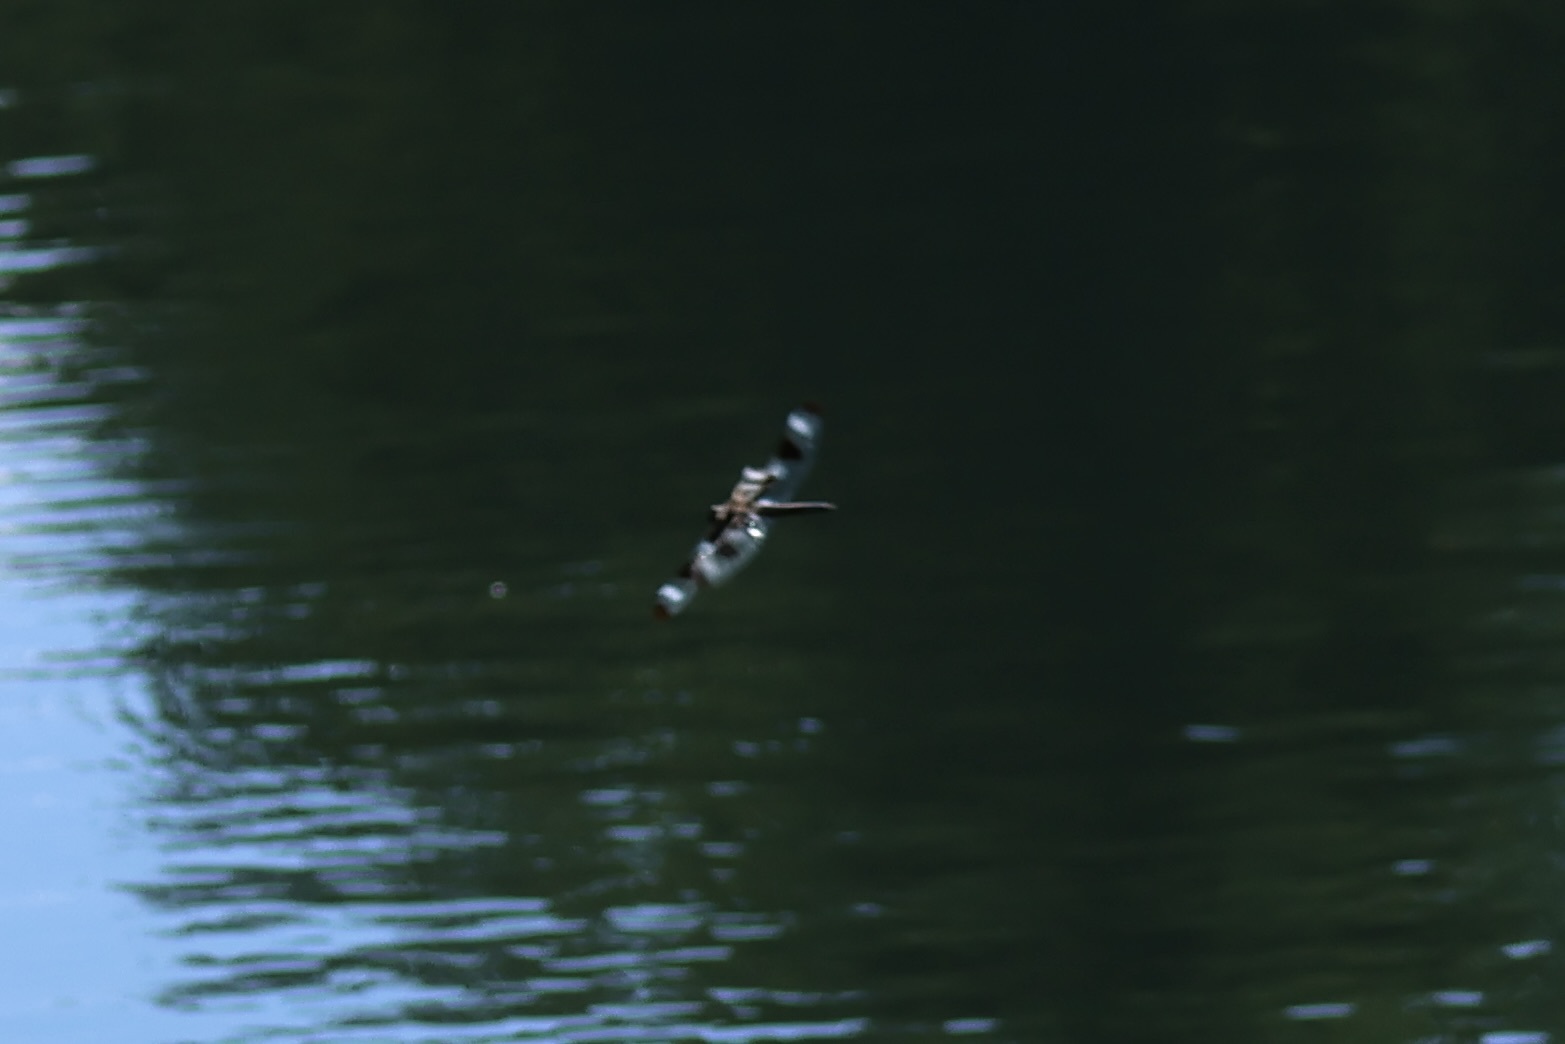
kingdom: Animalia
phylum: Arthropoda
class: Insecta
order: Odonata
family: Libellulidae
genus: Libellula
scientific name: Libellula pulchella
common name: Twelve-spotted skimmer
